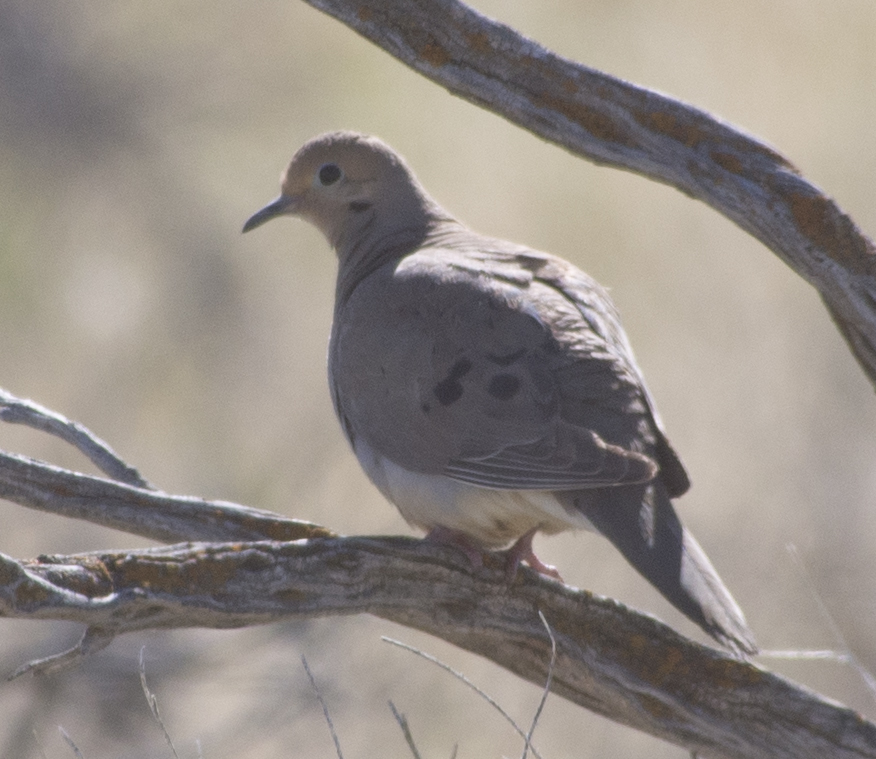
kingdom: Animalia
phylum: Chordata
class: Aves
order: Columbiformes
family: Columbidae
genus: Zenaida
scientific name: Zenaida macroura
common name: Mourning dove
